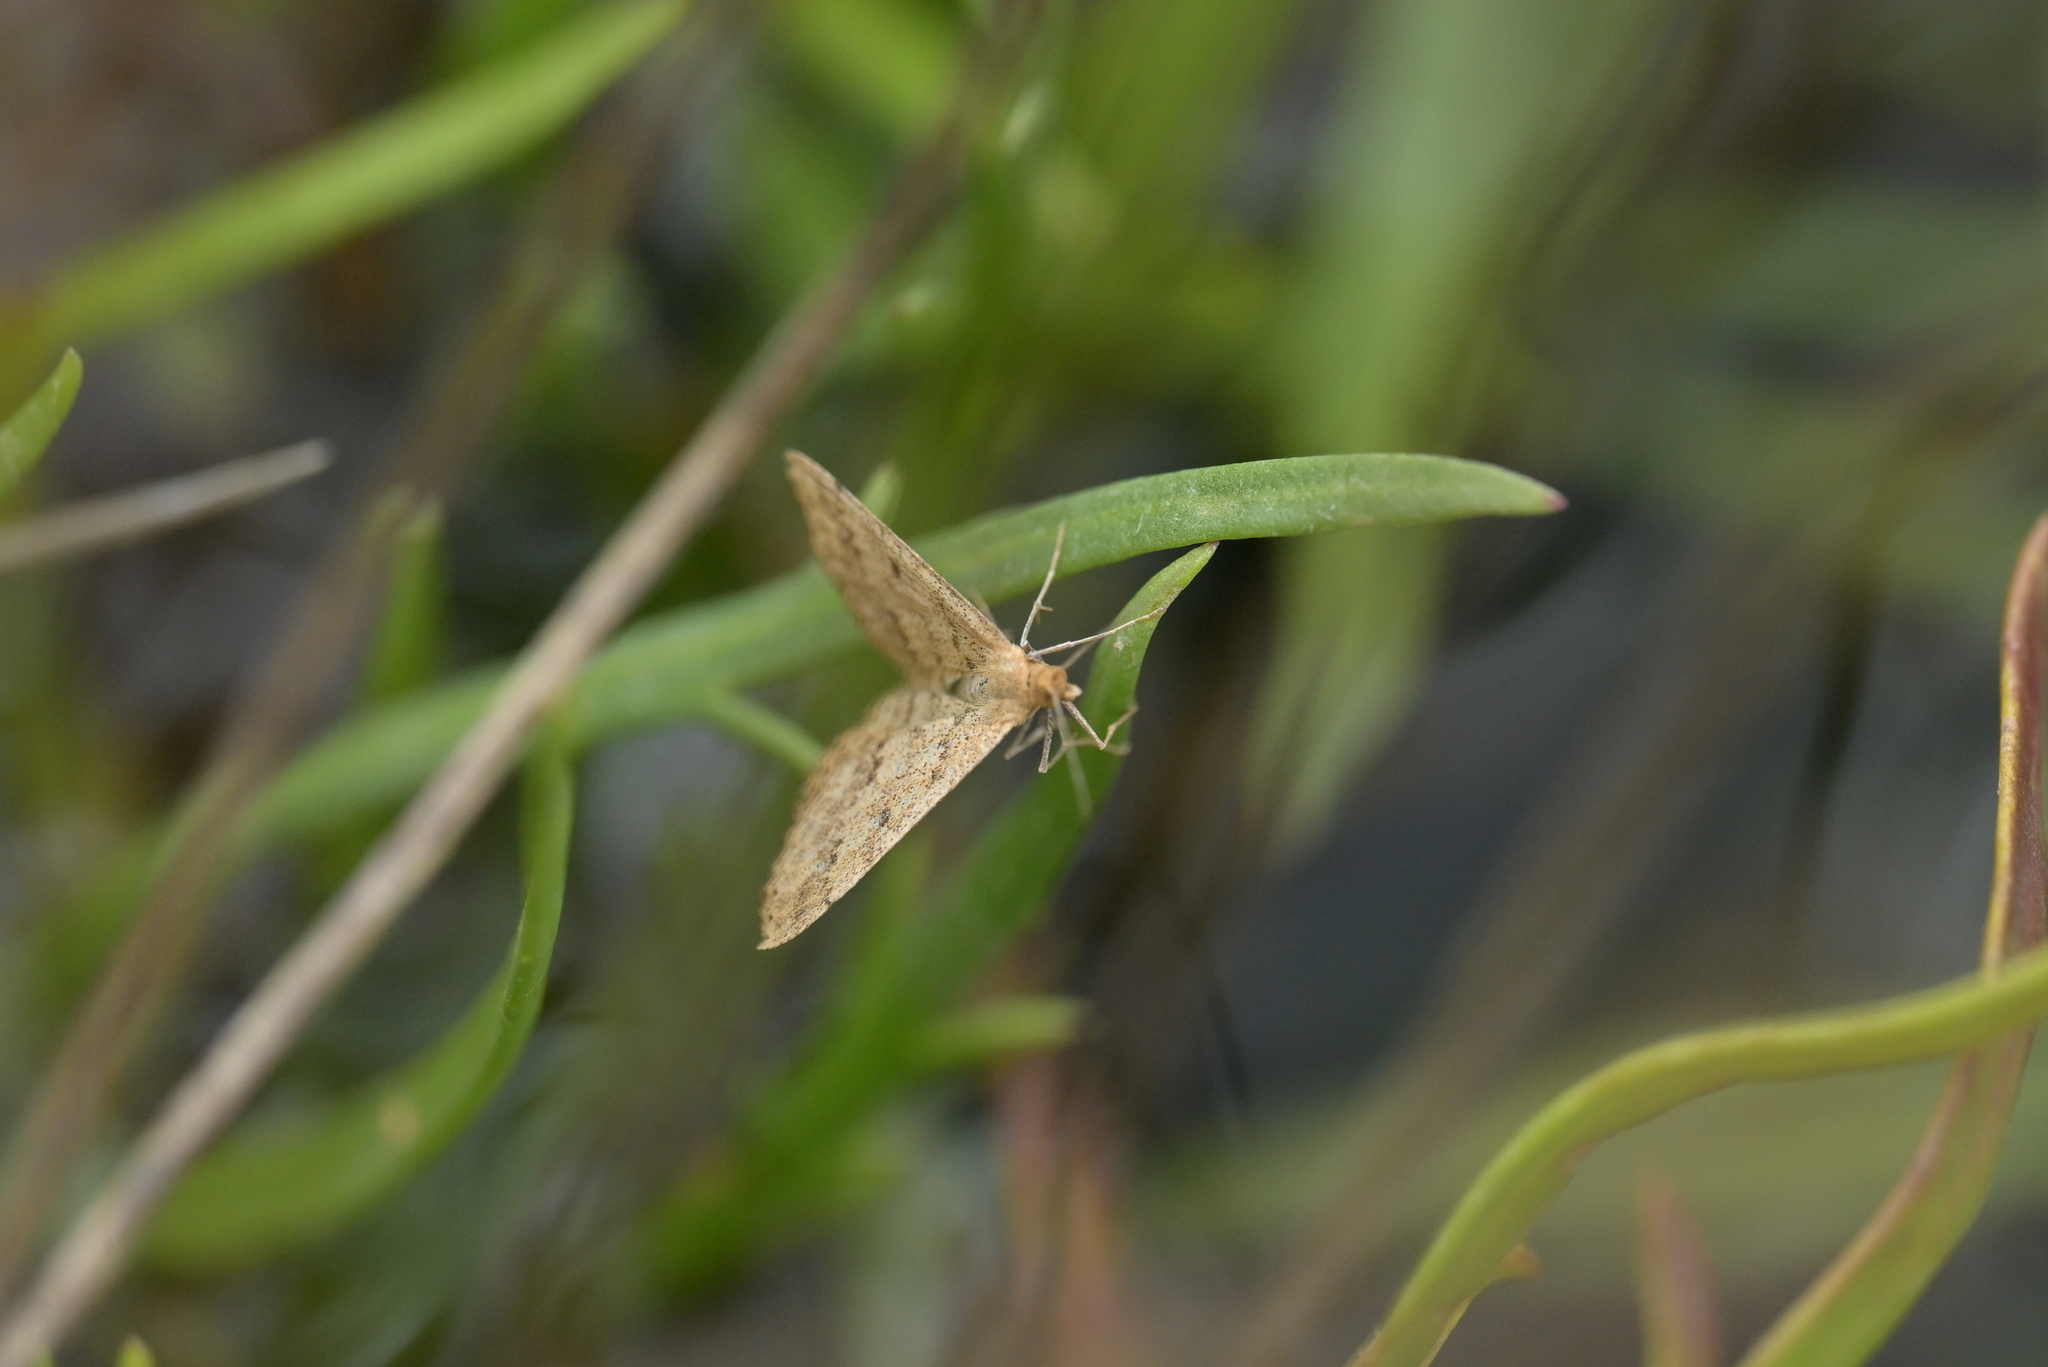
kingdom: Animalia
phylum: Arthropoda
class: Insecta
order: Lepidoptera
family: Geometridae
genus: Scopula
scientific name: Scopula rubraria
